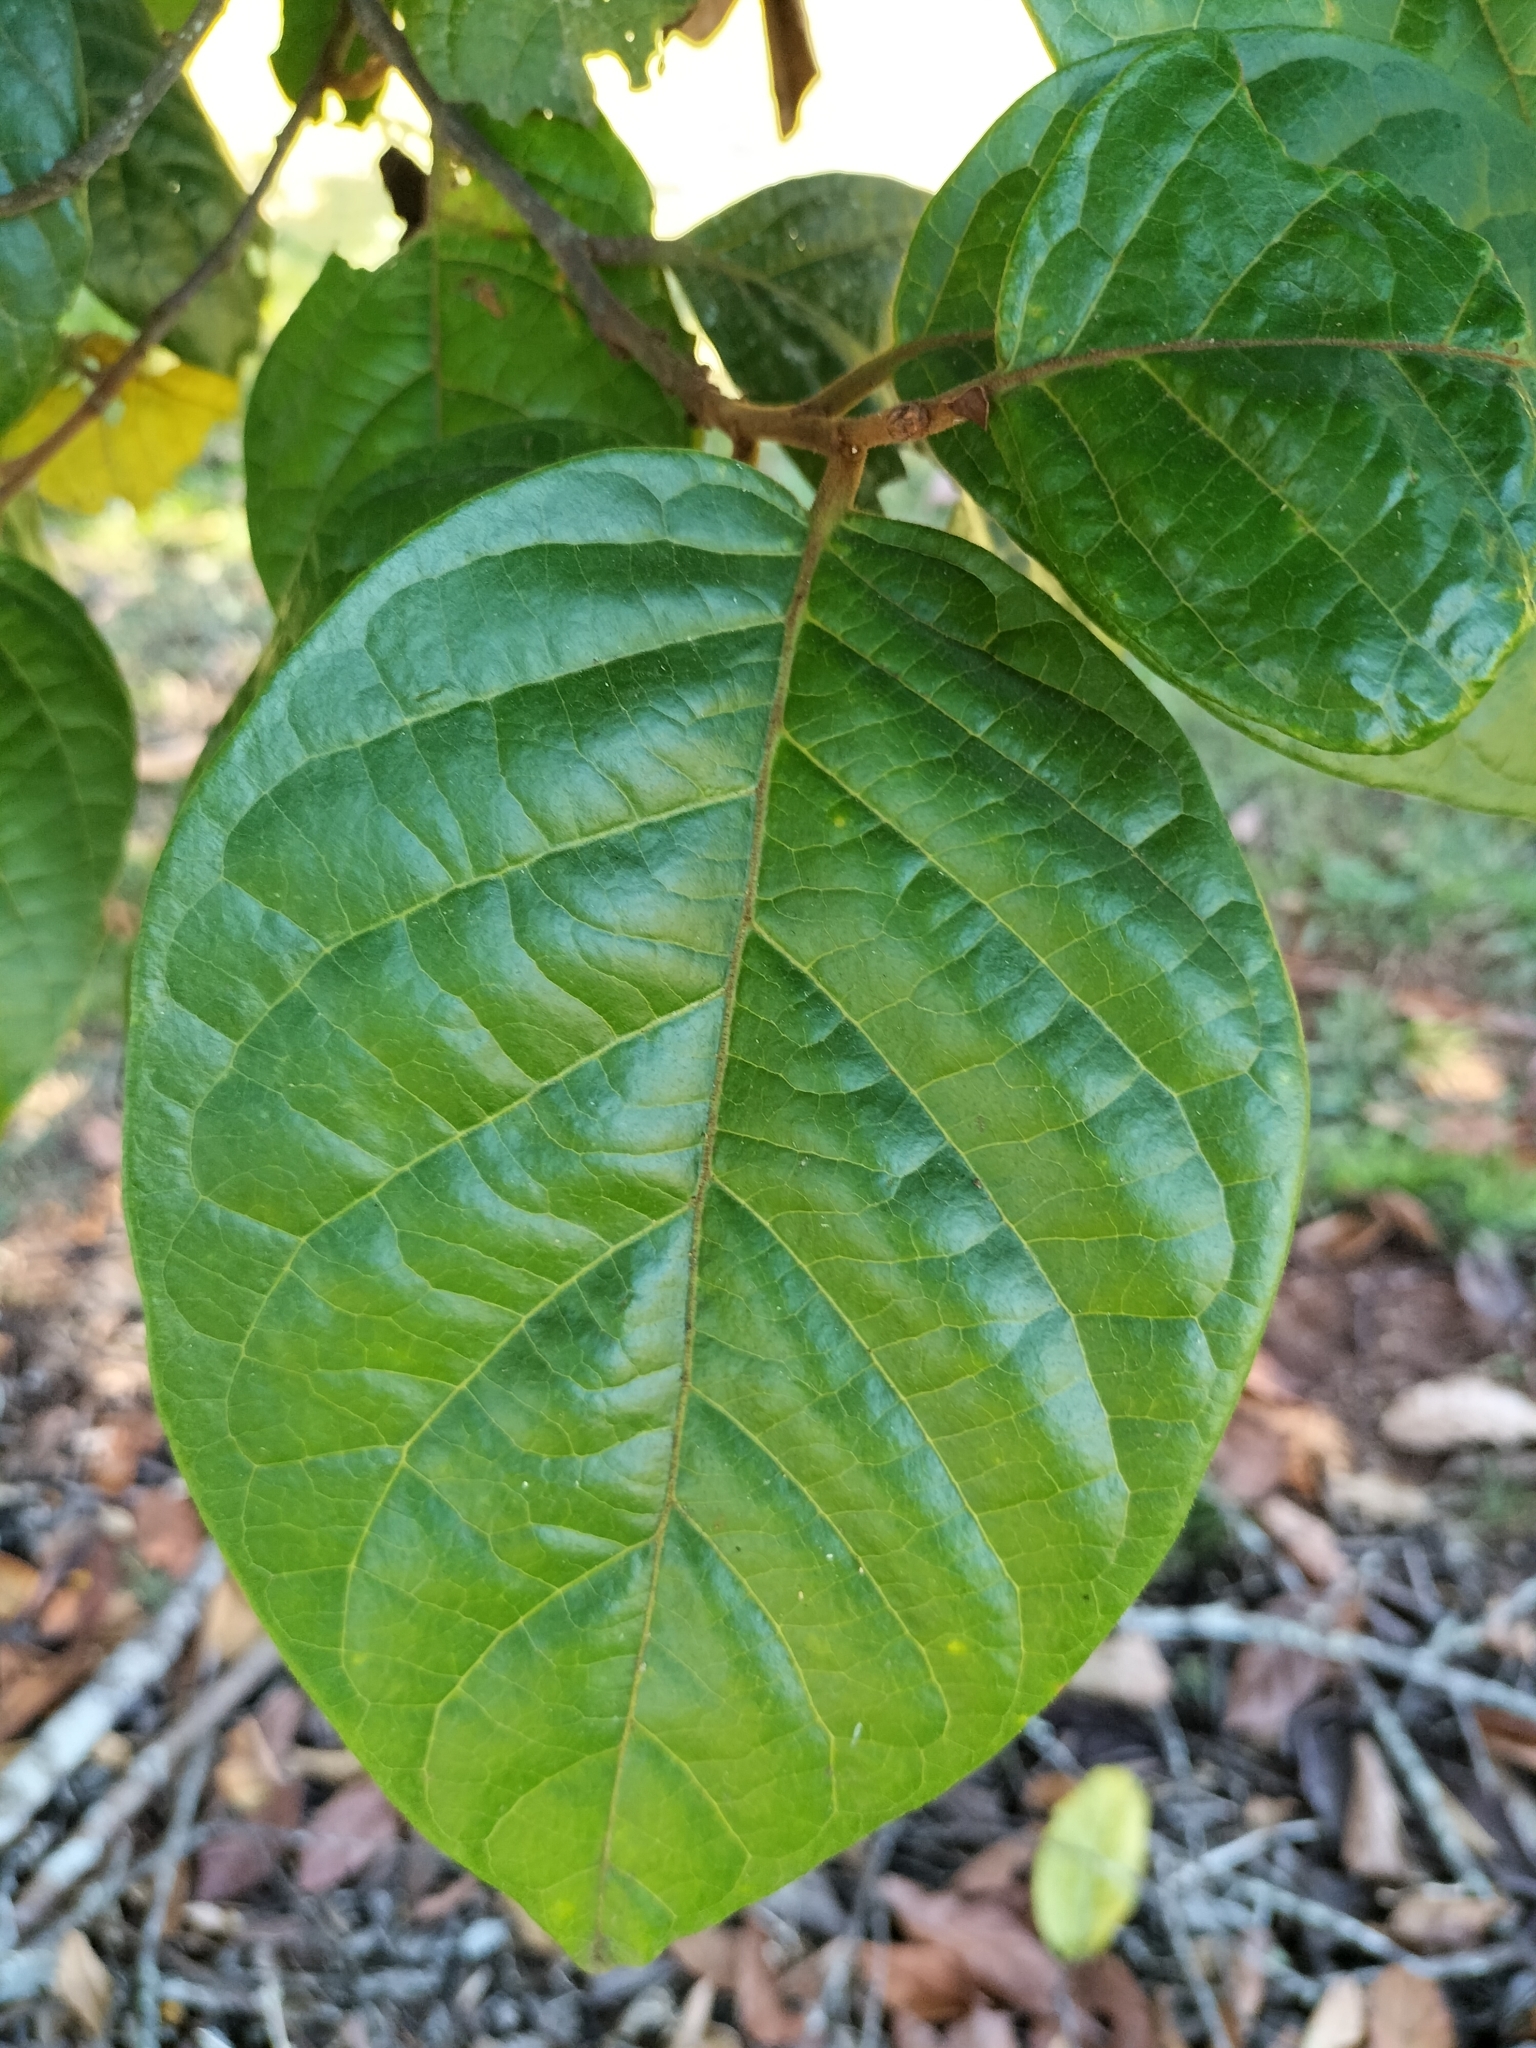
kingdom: Plantae
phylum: Tracheophyta
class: Magnoliopsida
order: Sapindales
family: Sapindaceae
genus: Diploglottis
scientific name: Diploglottis diphyllostegia
